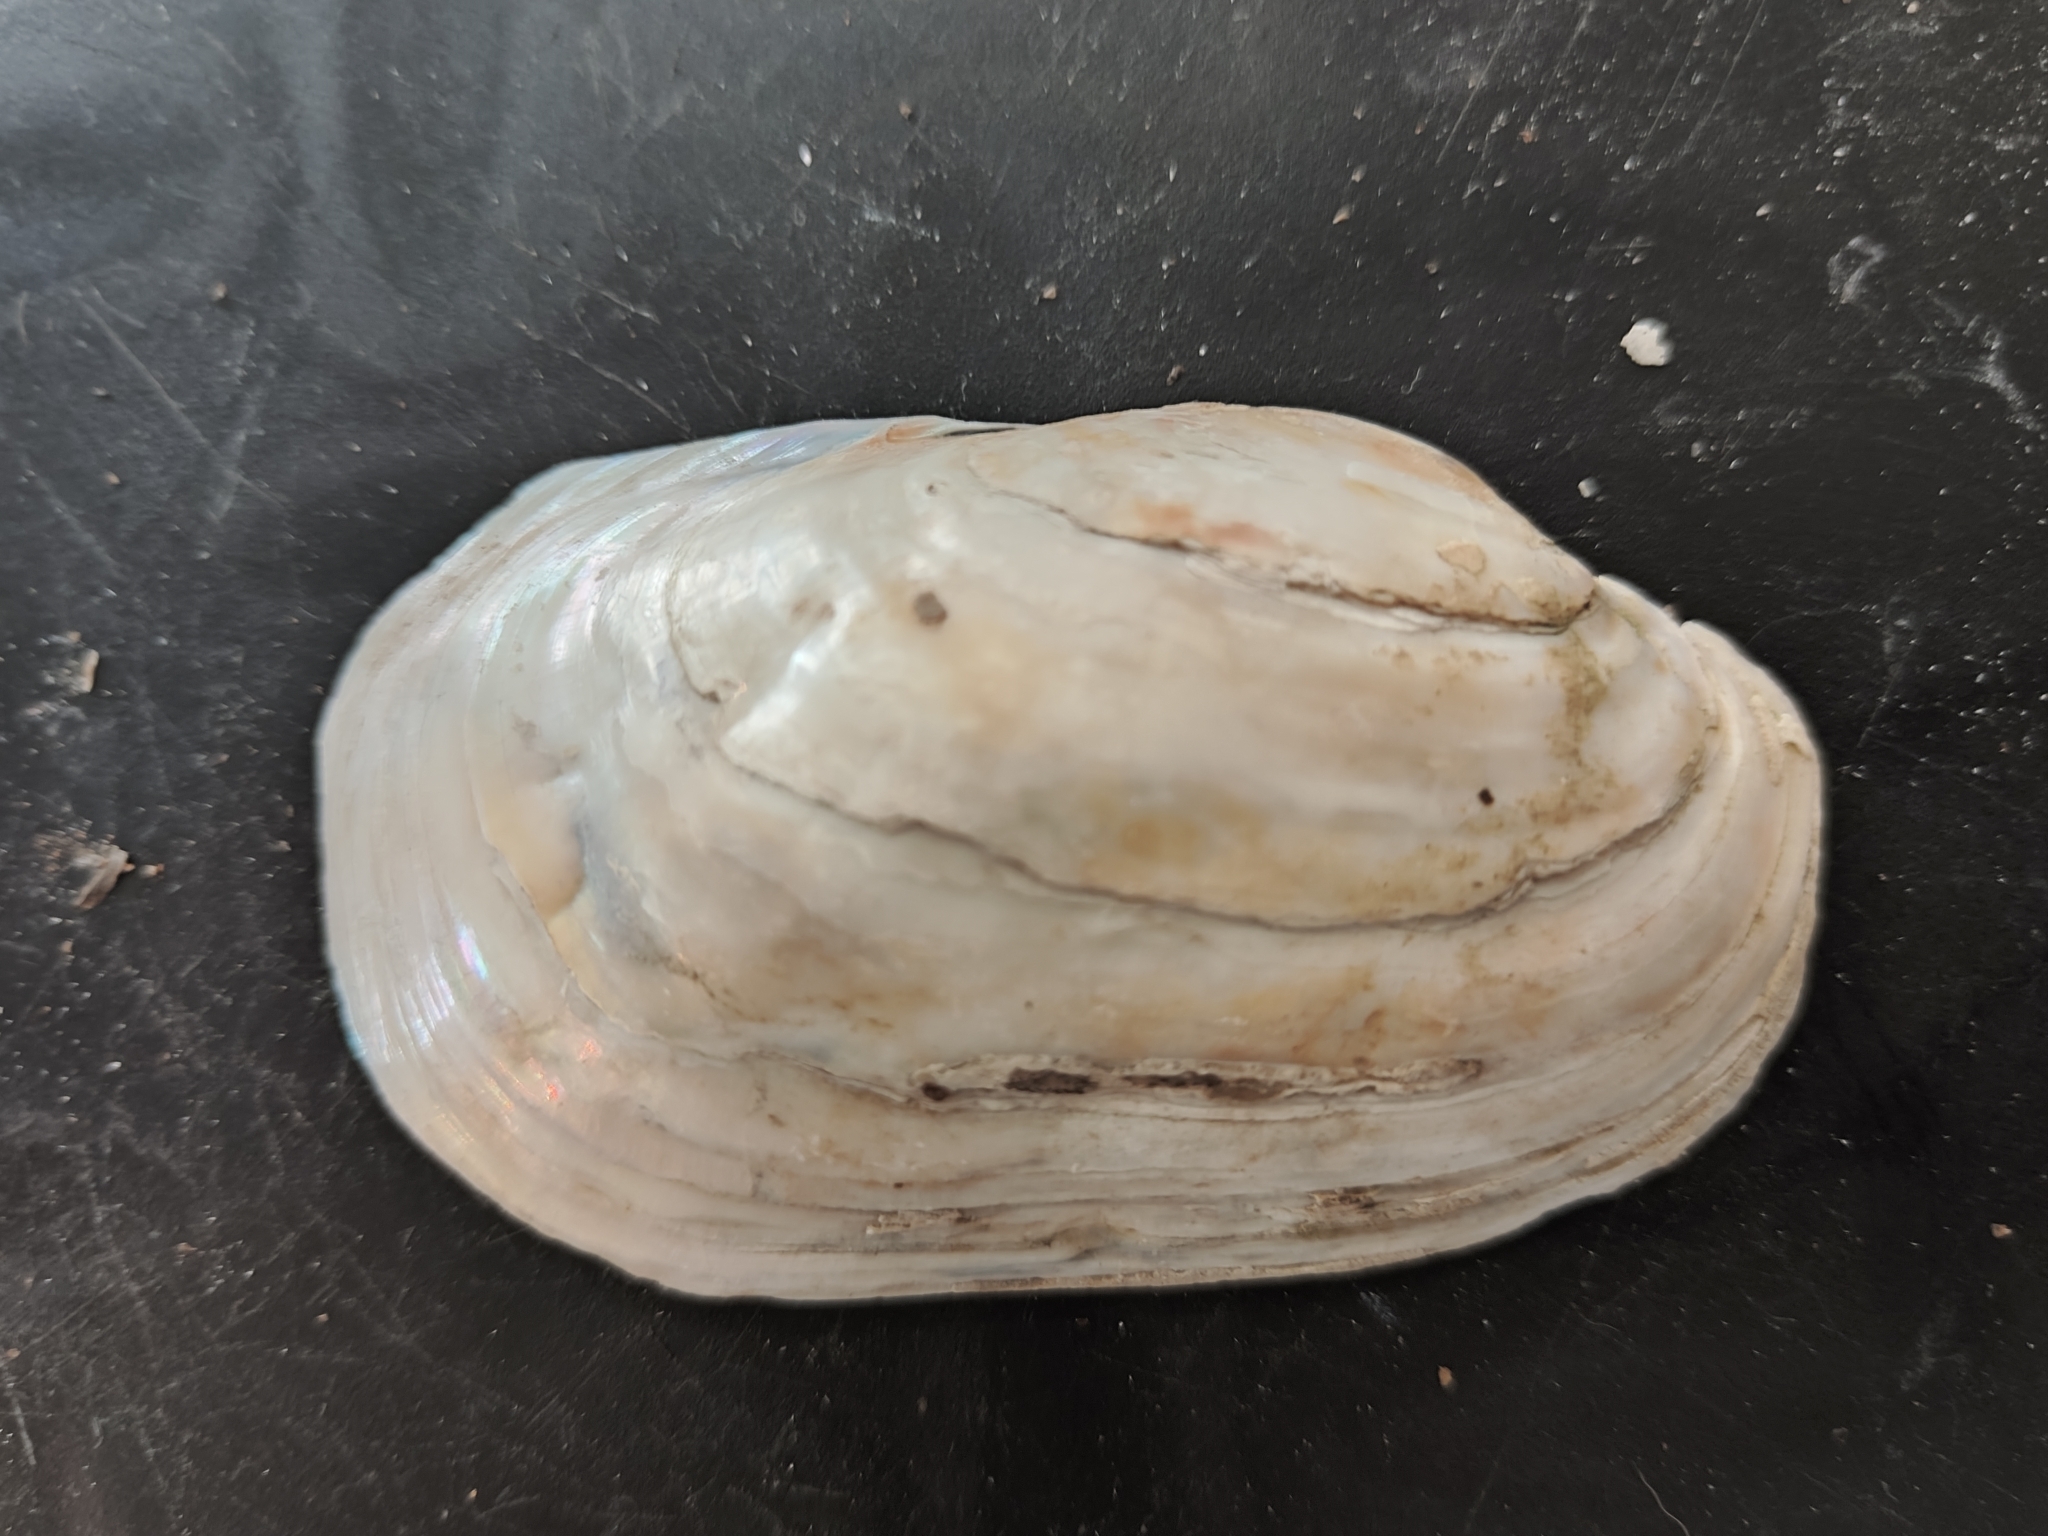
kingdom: Animalia
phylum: Mollusca
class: Bivalvia
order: Unionida
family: Unionidae
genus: Lampsilis
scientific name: Lampsilis siliquoidea
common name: Fatmucket
